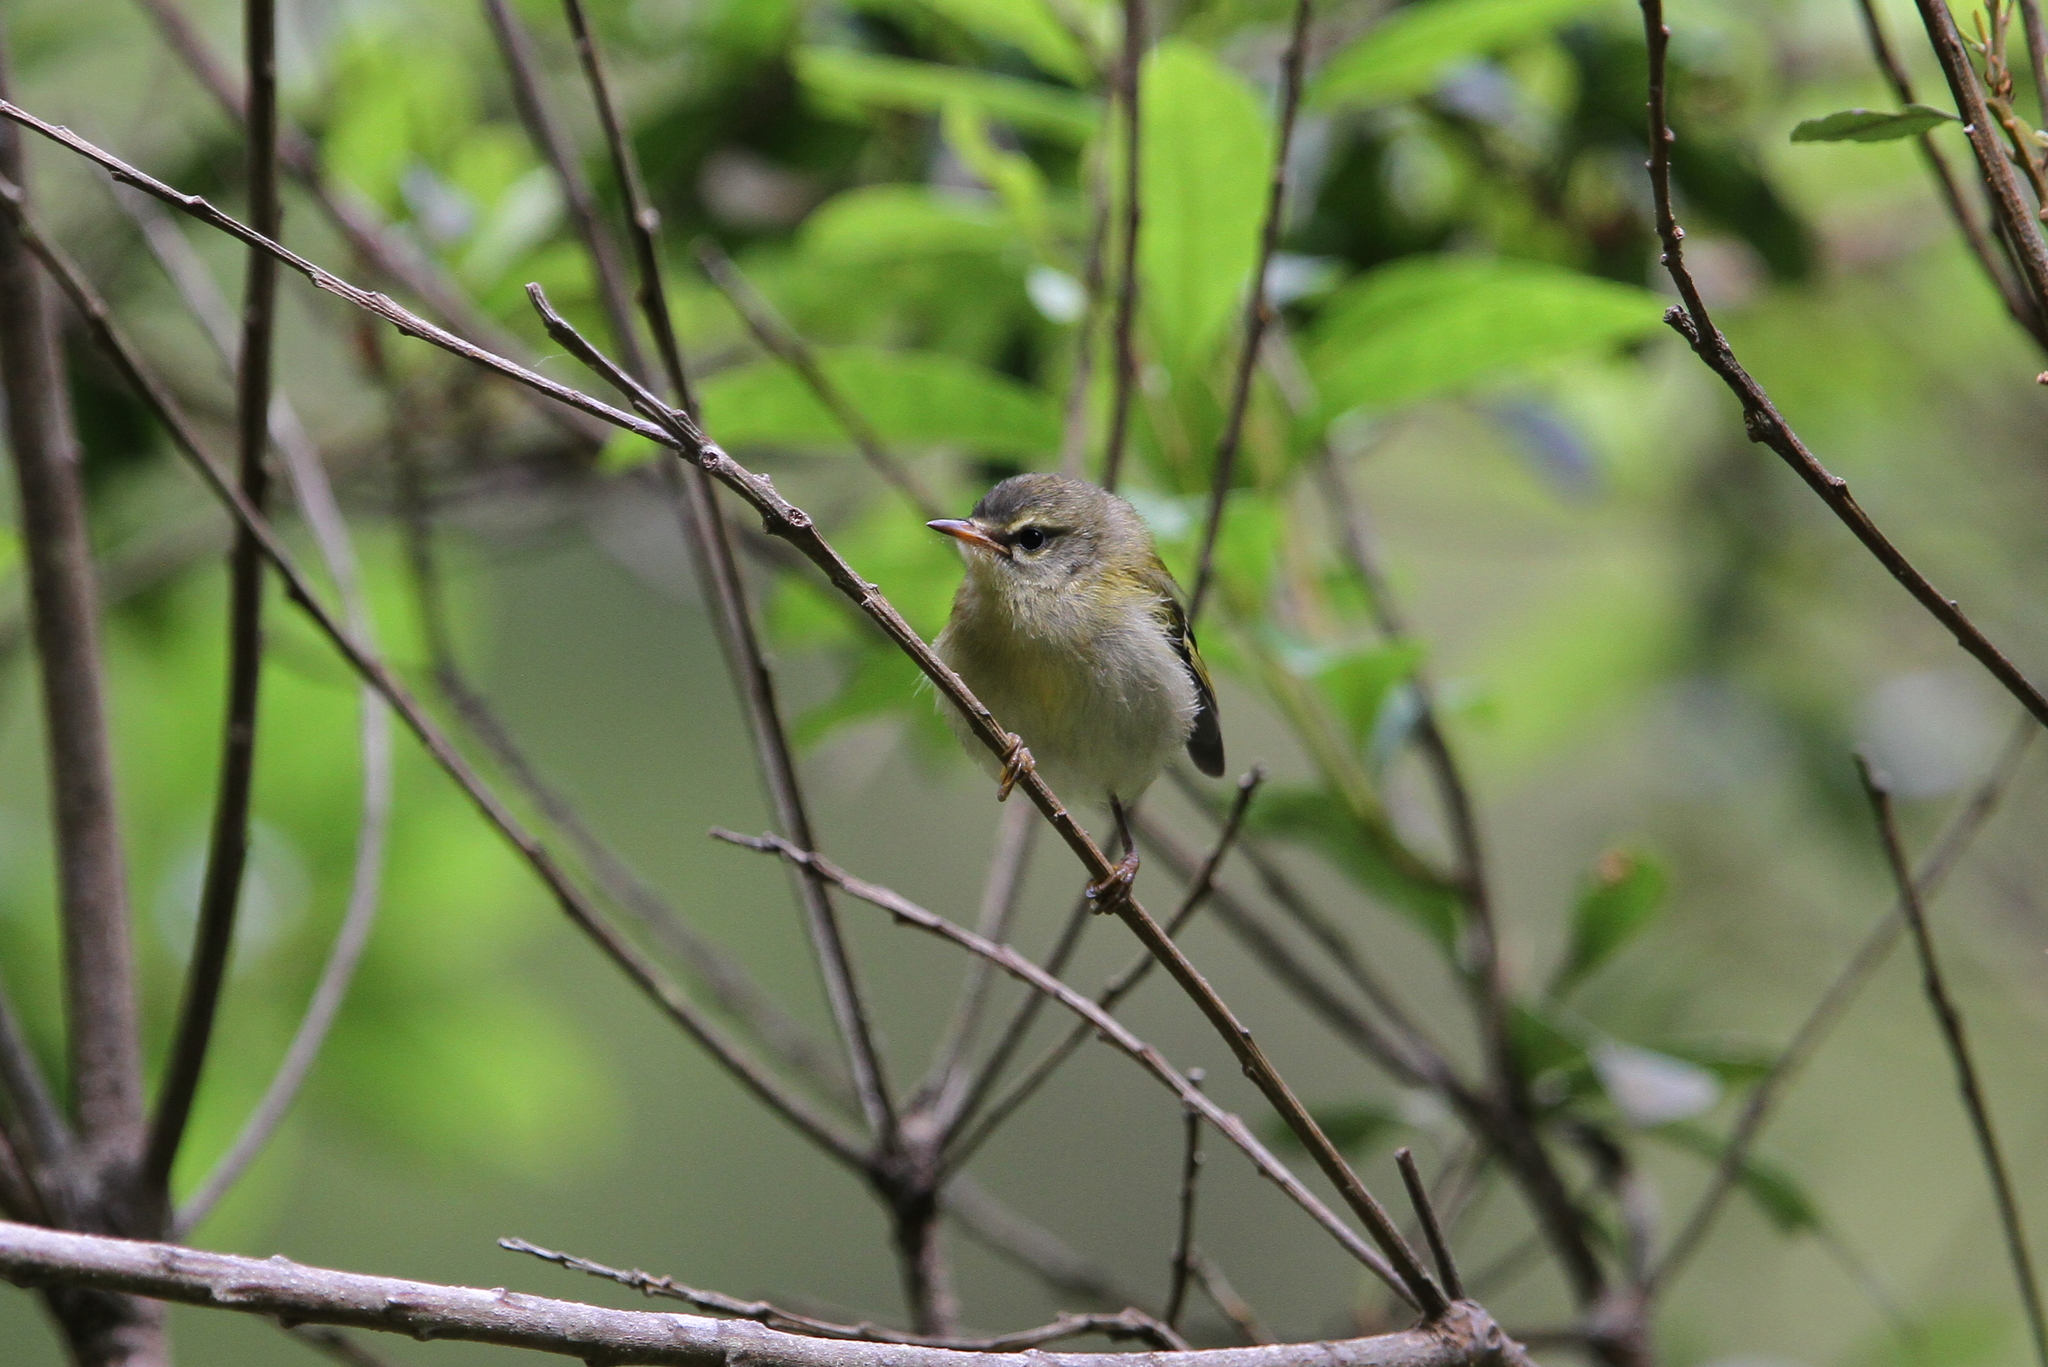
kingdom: Animalia
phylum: Chordata
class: Aves
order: Passeriformes
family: Regulidae
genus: Regulus
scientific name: Regulus madeirensis
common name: Madeira firecrest
